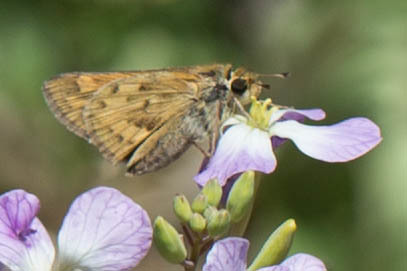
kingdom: Animalia
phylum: Arthropoda
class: Insecta
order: Lepidoptera
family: Hesperiidae
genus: Hylephila
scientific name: Hylephila phyleus
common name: Fiery skipper
